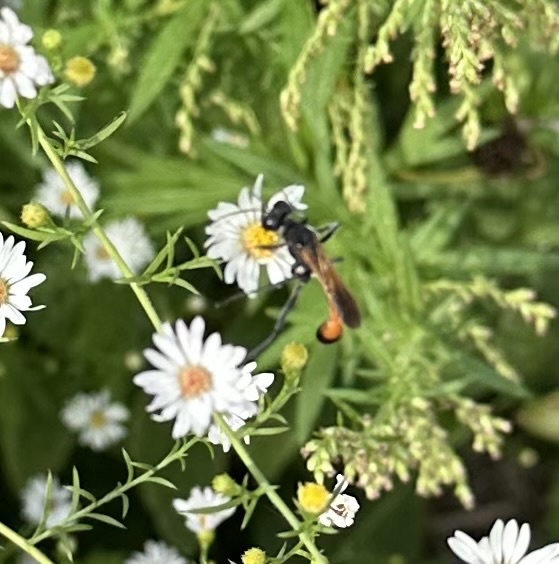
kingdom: Animalia
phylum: Arthropoda
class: Insecta
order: Hymenoptera
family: Sphecidae
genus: Ammophila
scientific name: Ammophila pictipennis
